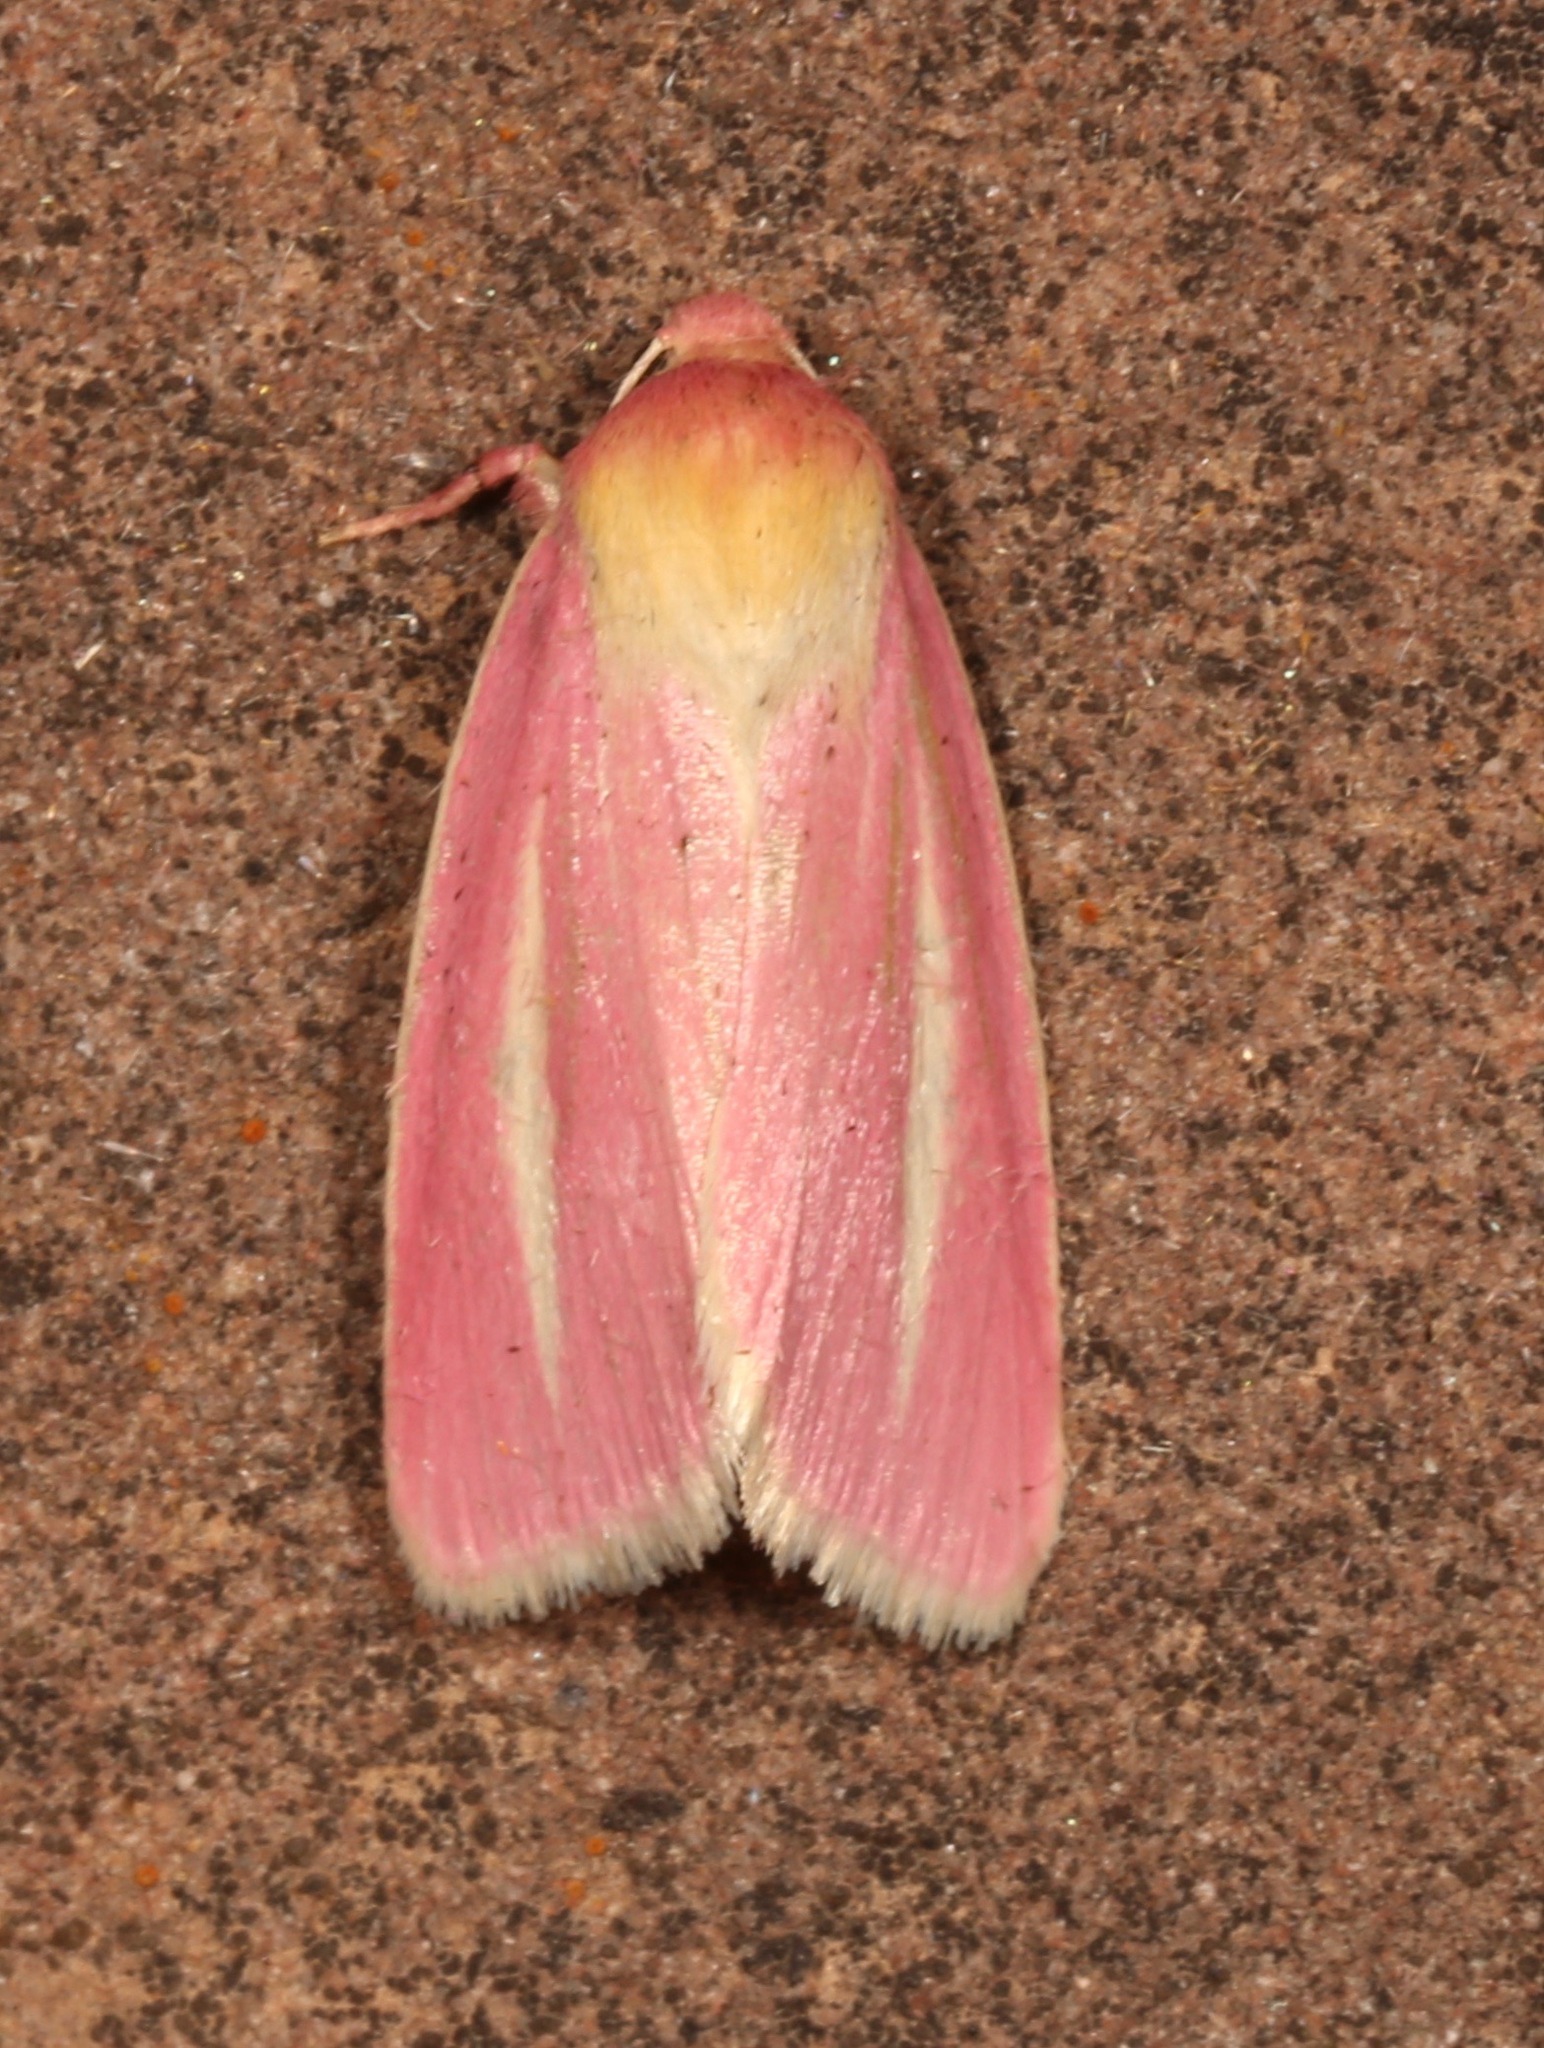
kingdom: Animalia
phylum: Arthropoda
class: Insecta
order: Lepidoptera
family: Noctuidae
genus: Heliocheilus
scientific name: Heliocheilus julia
